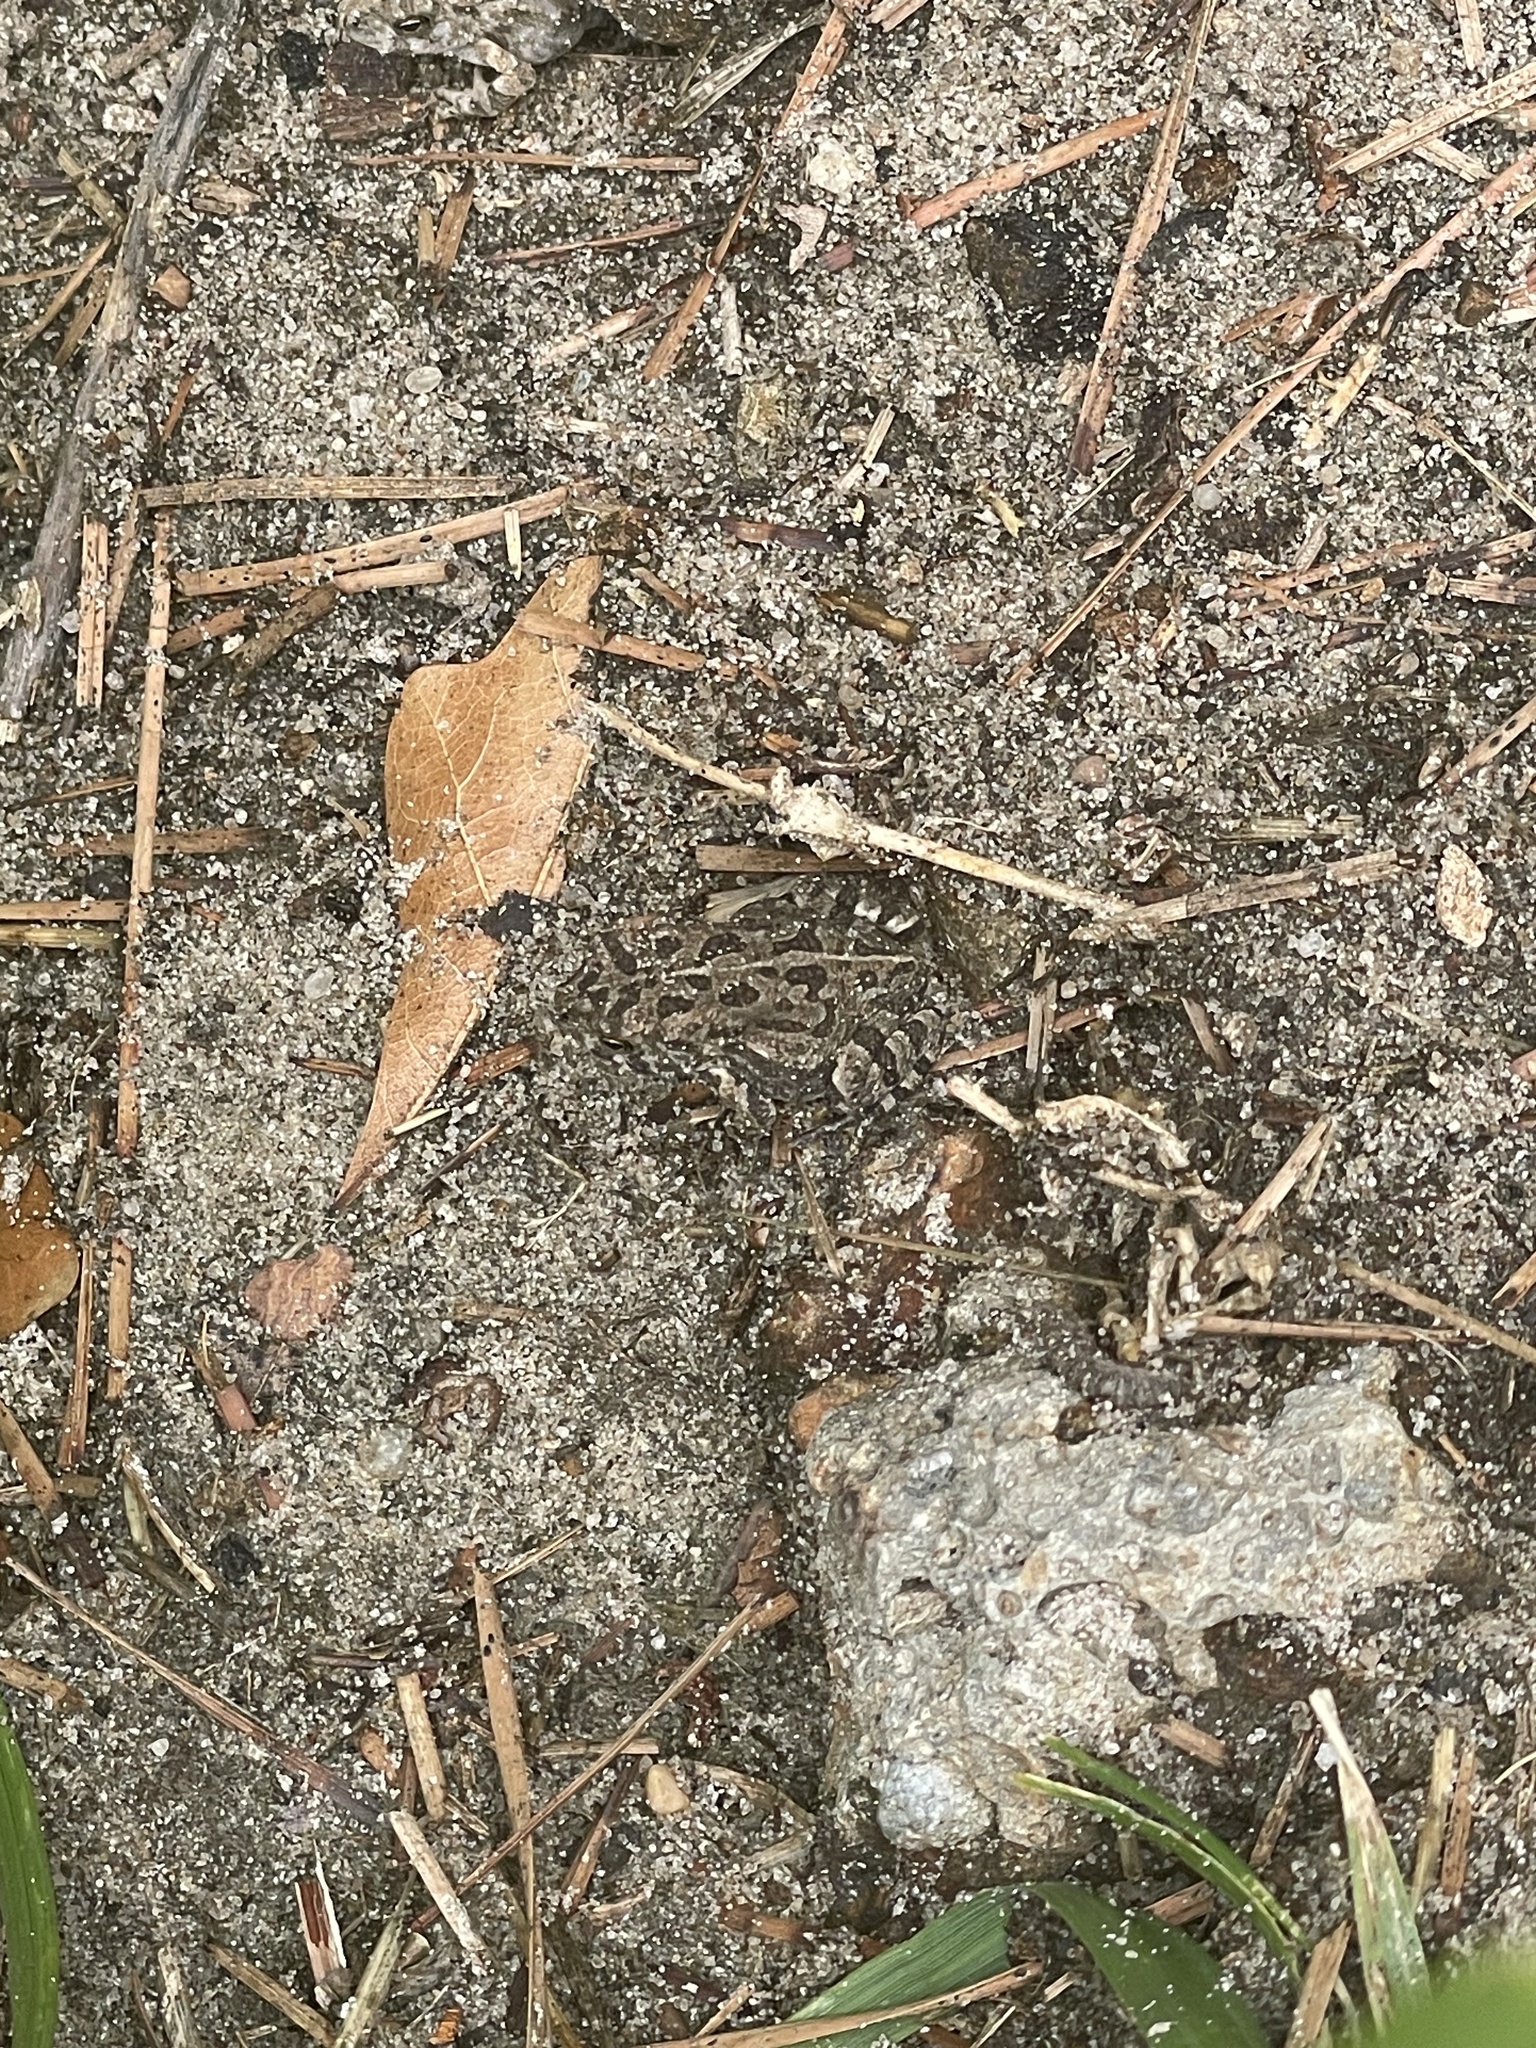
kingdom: Animalia
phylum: Chordata
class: Amphibia
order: Anura
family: Bufonidae
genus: Anaxyrus
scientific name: Anaxyrus fowleri
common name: Fowler's toad
